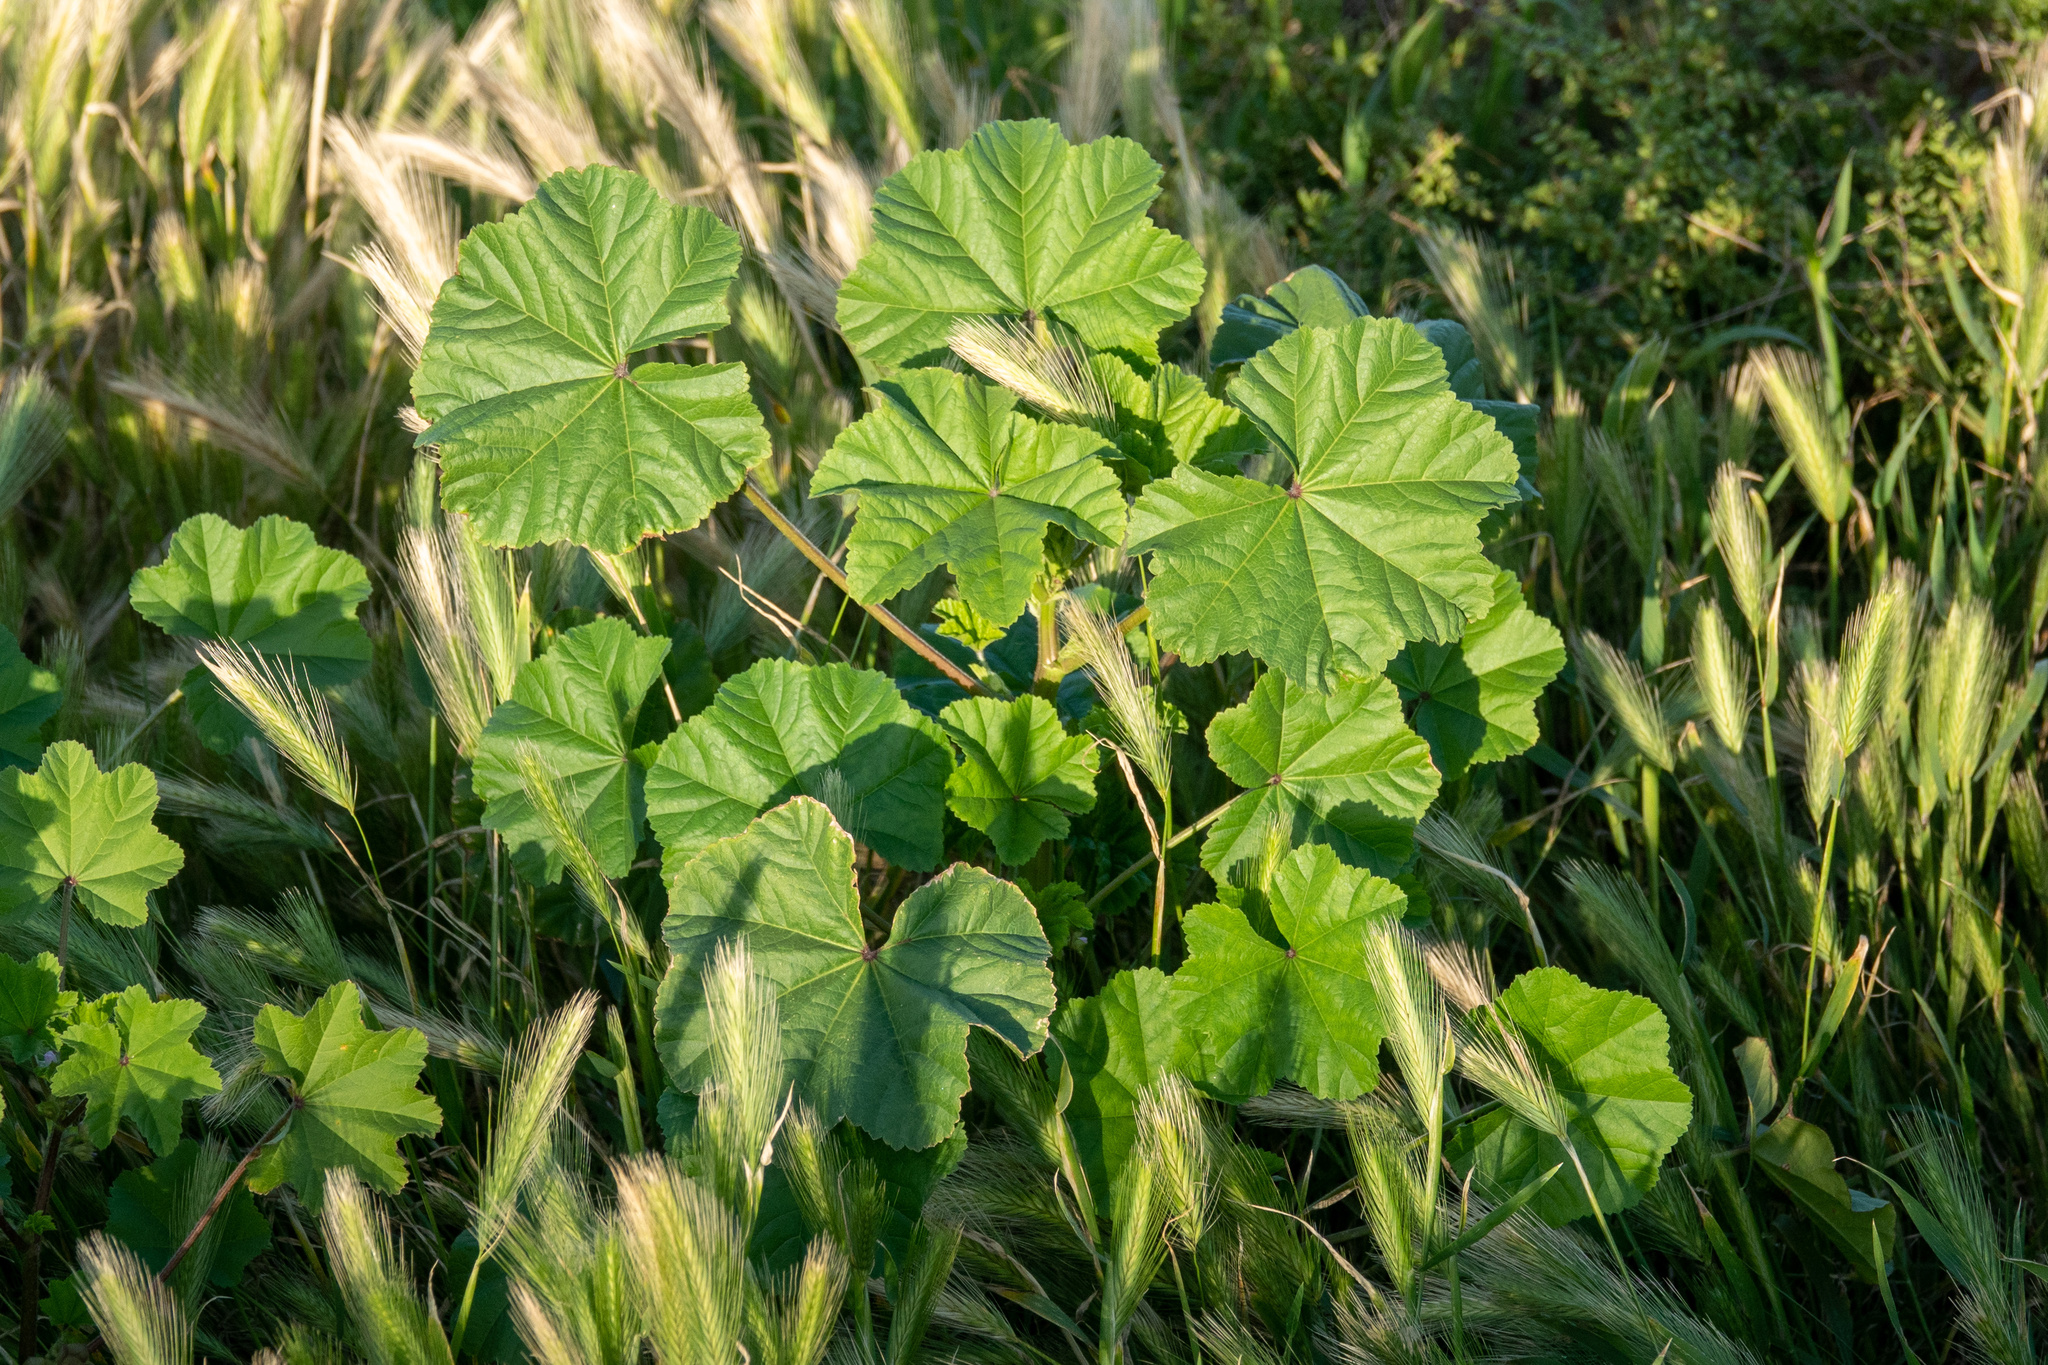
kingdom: Plantae
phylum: Tracheophyta
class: Magnoliopsida
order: Malvales
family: Malvaceae
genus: Malva
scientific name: Malva
